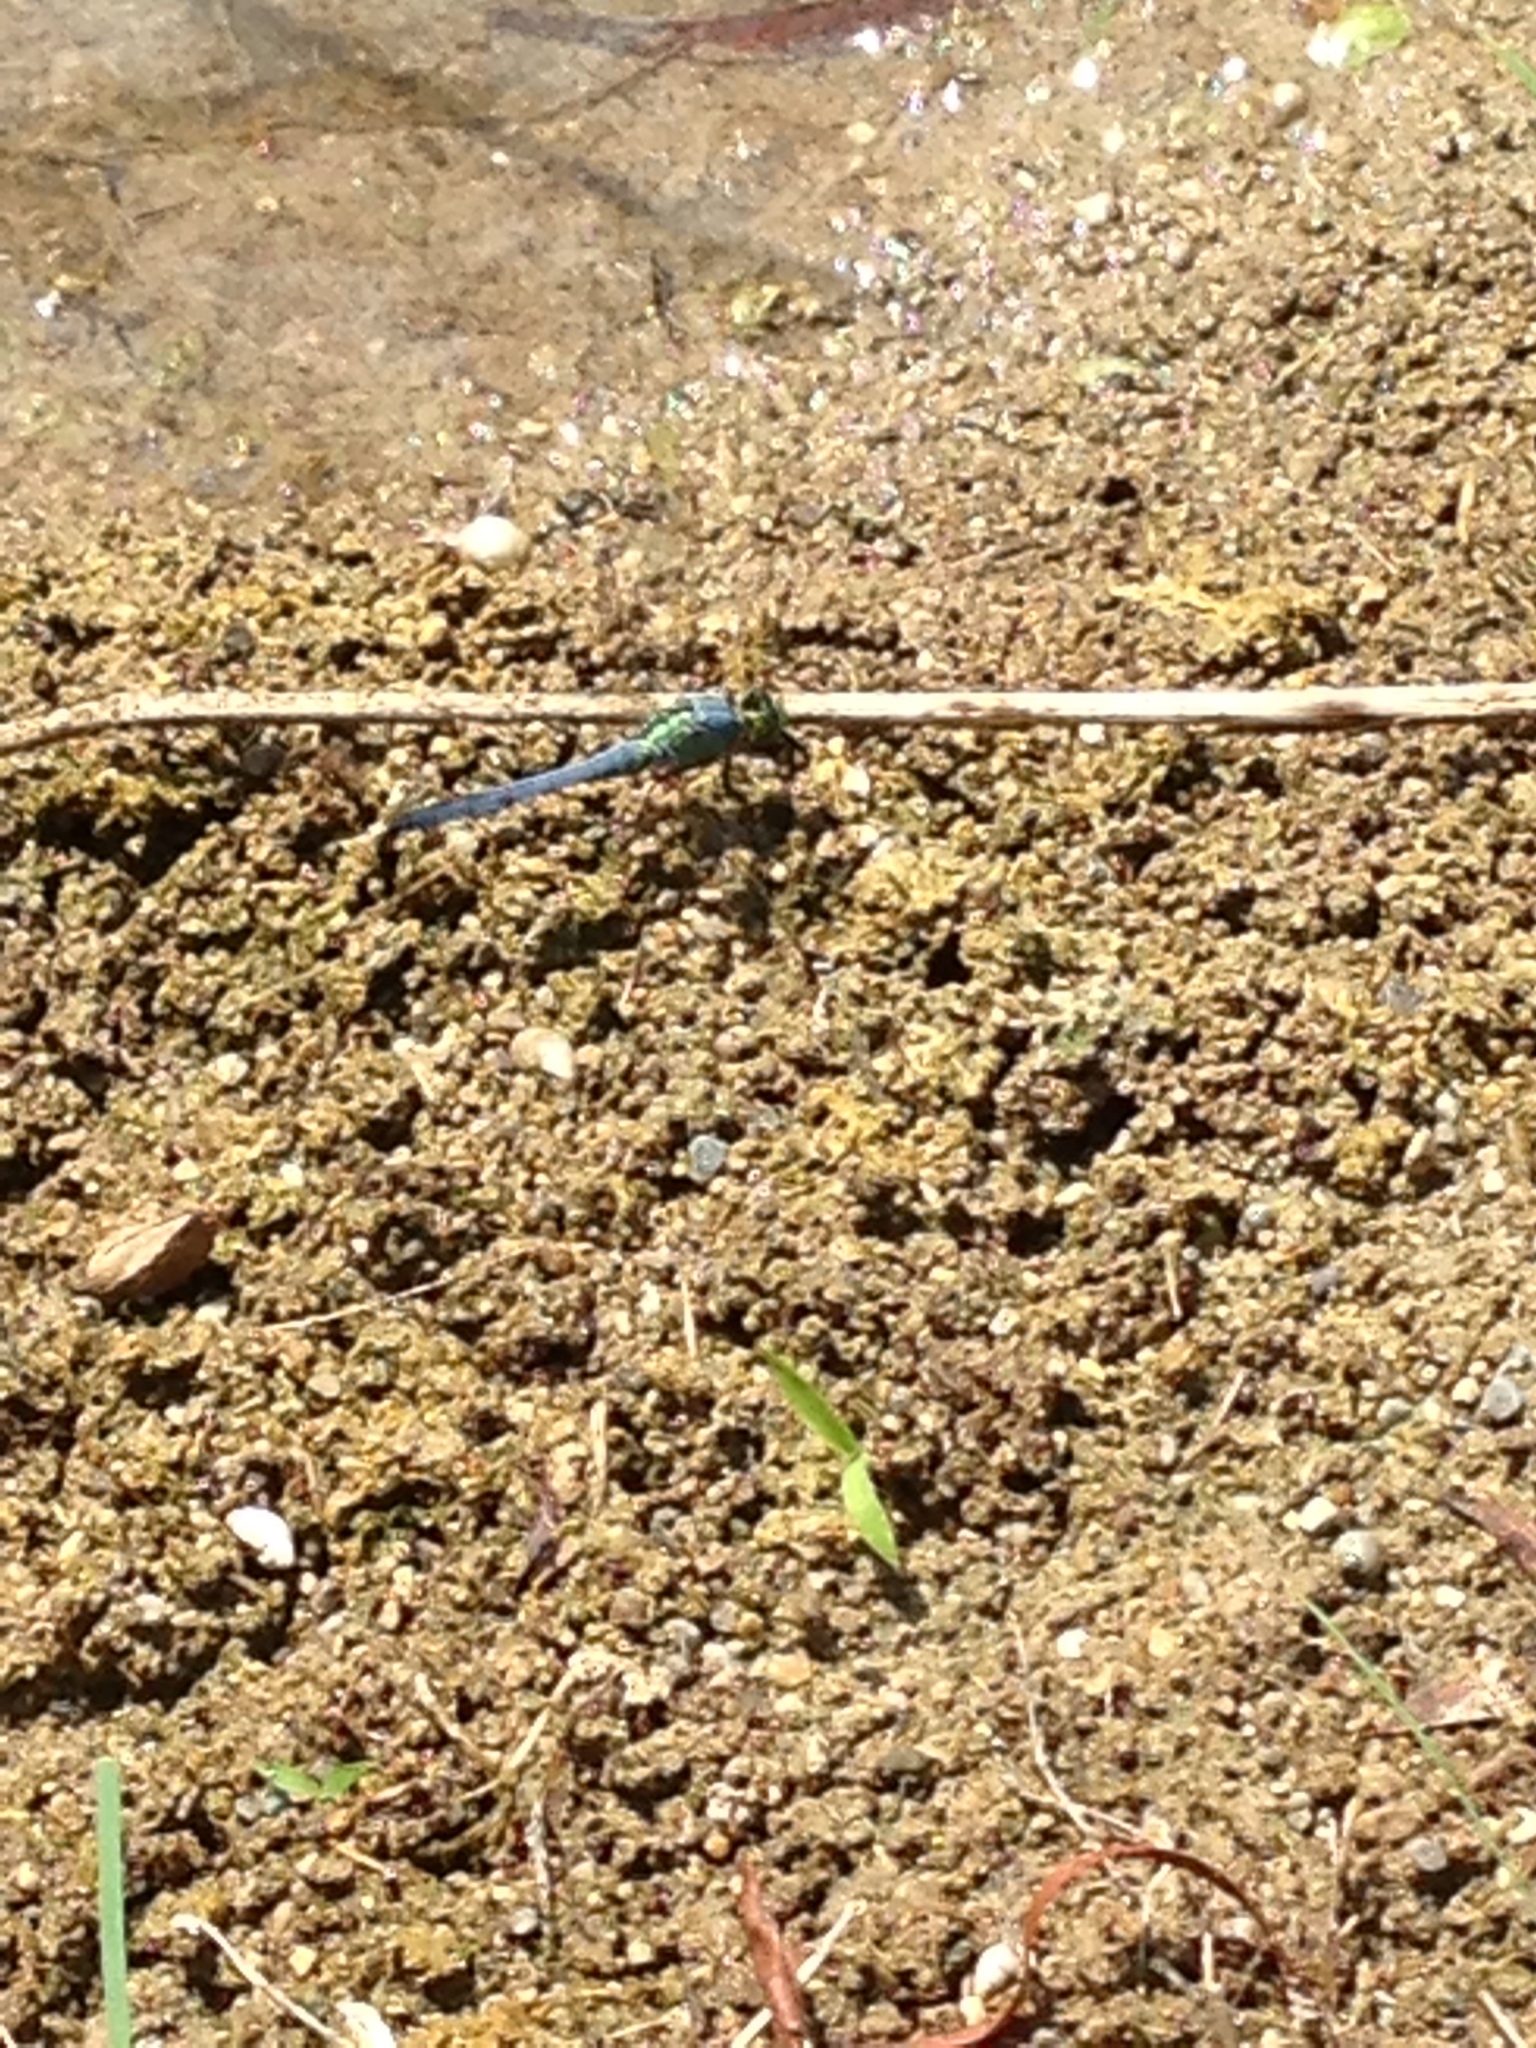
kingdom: Animalia
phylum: Arthropoda
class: Insecta
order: Odonata
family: Libellulidae
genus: Erythemis
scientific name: Erythemis simplicicollis
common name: Eastern pondhawk
